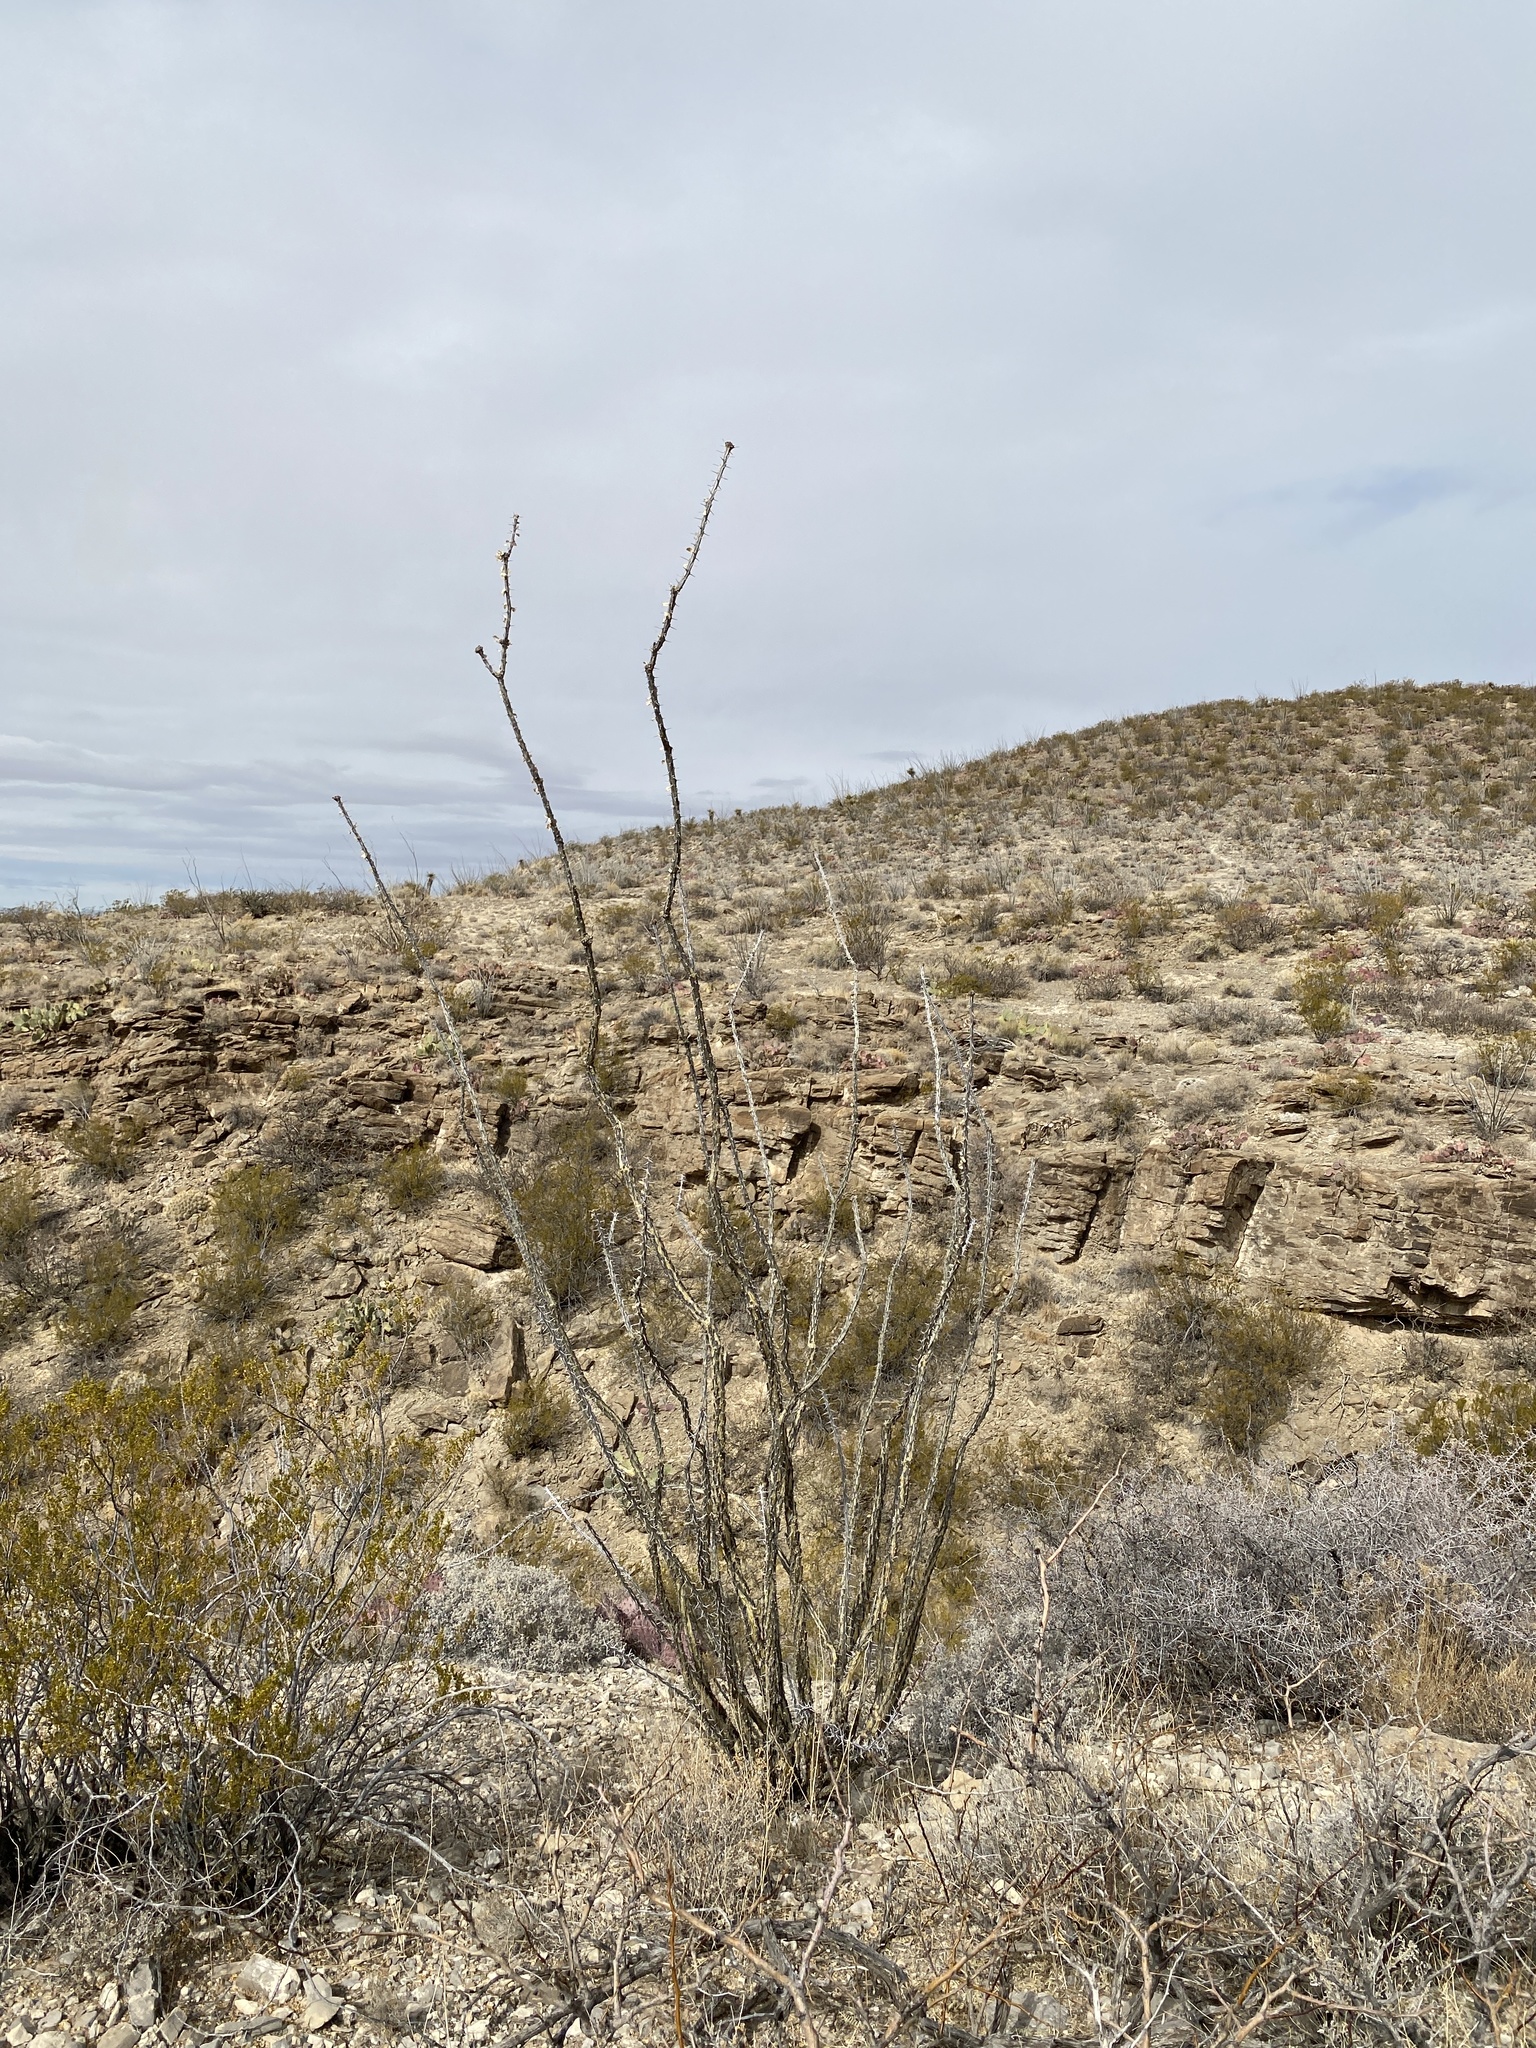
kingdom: Plantae
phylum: Tracheophyta
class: Magnoliopsida
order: Ericales
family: Fouquieriaceae
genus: Fouquieria
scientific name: Fouquieria splendens
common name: Vine-cactus
